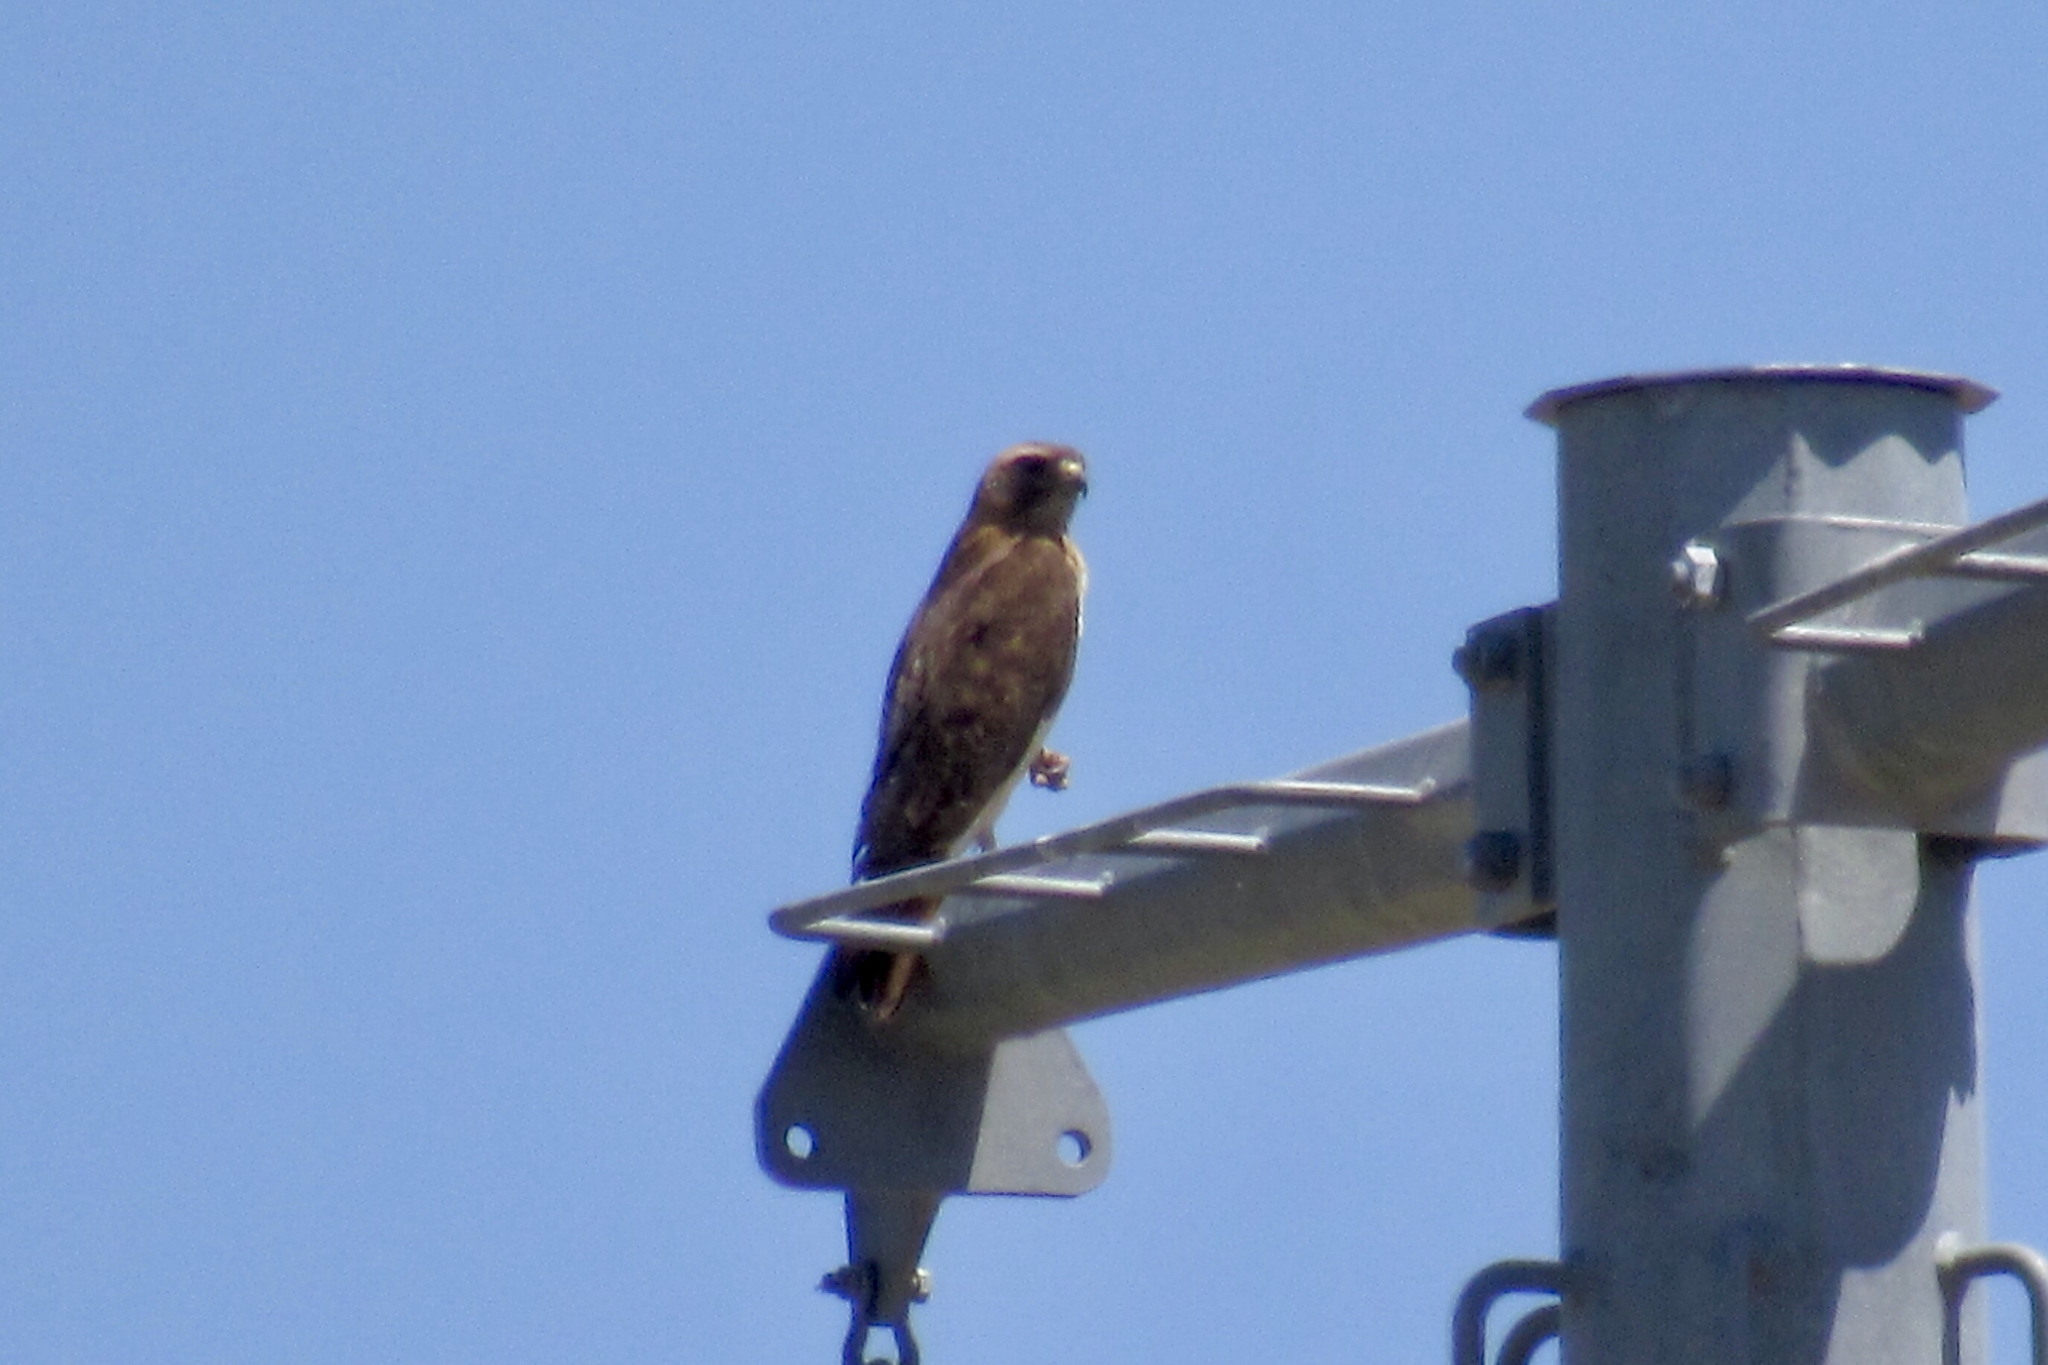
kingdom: Animalia
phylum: Chordata
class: Aves
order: Accipitriformes
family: Accipitridae
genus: Buteo
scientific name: Buteo jamaicensis
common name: Red-tailed hawk
